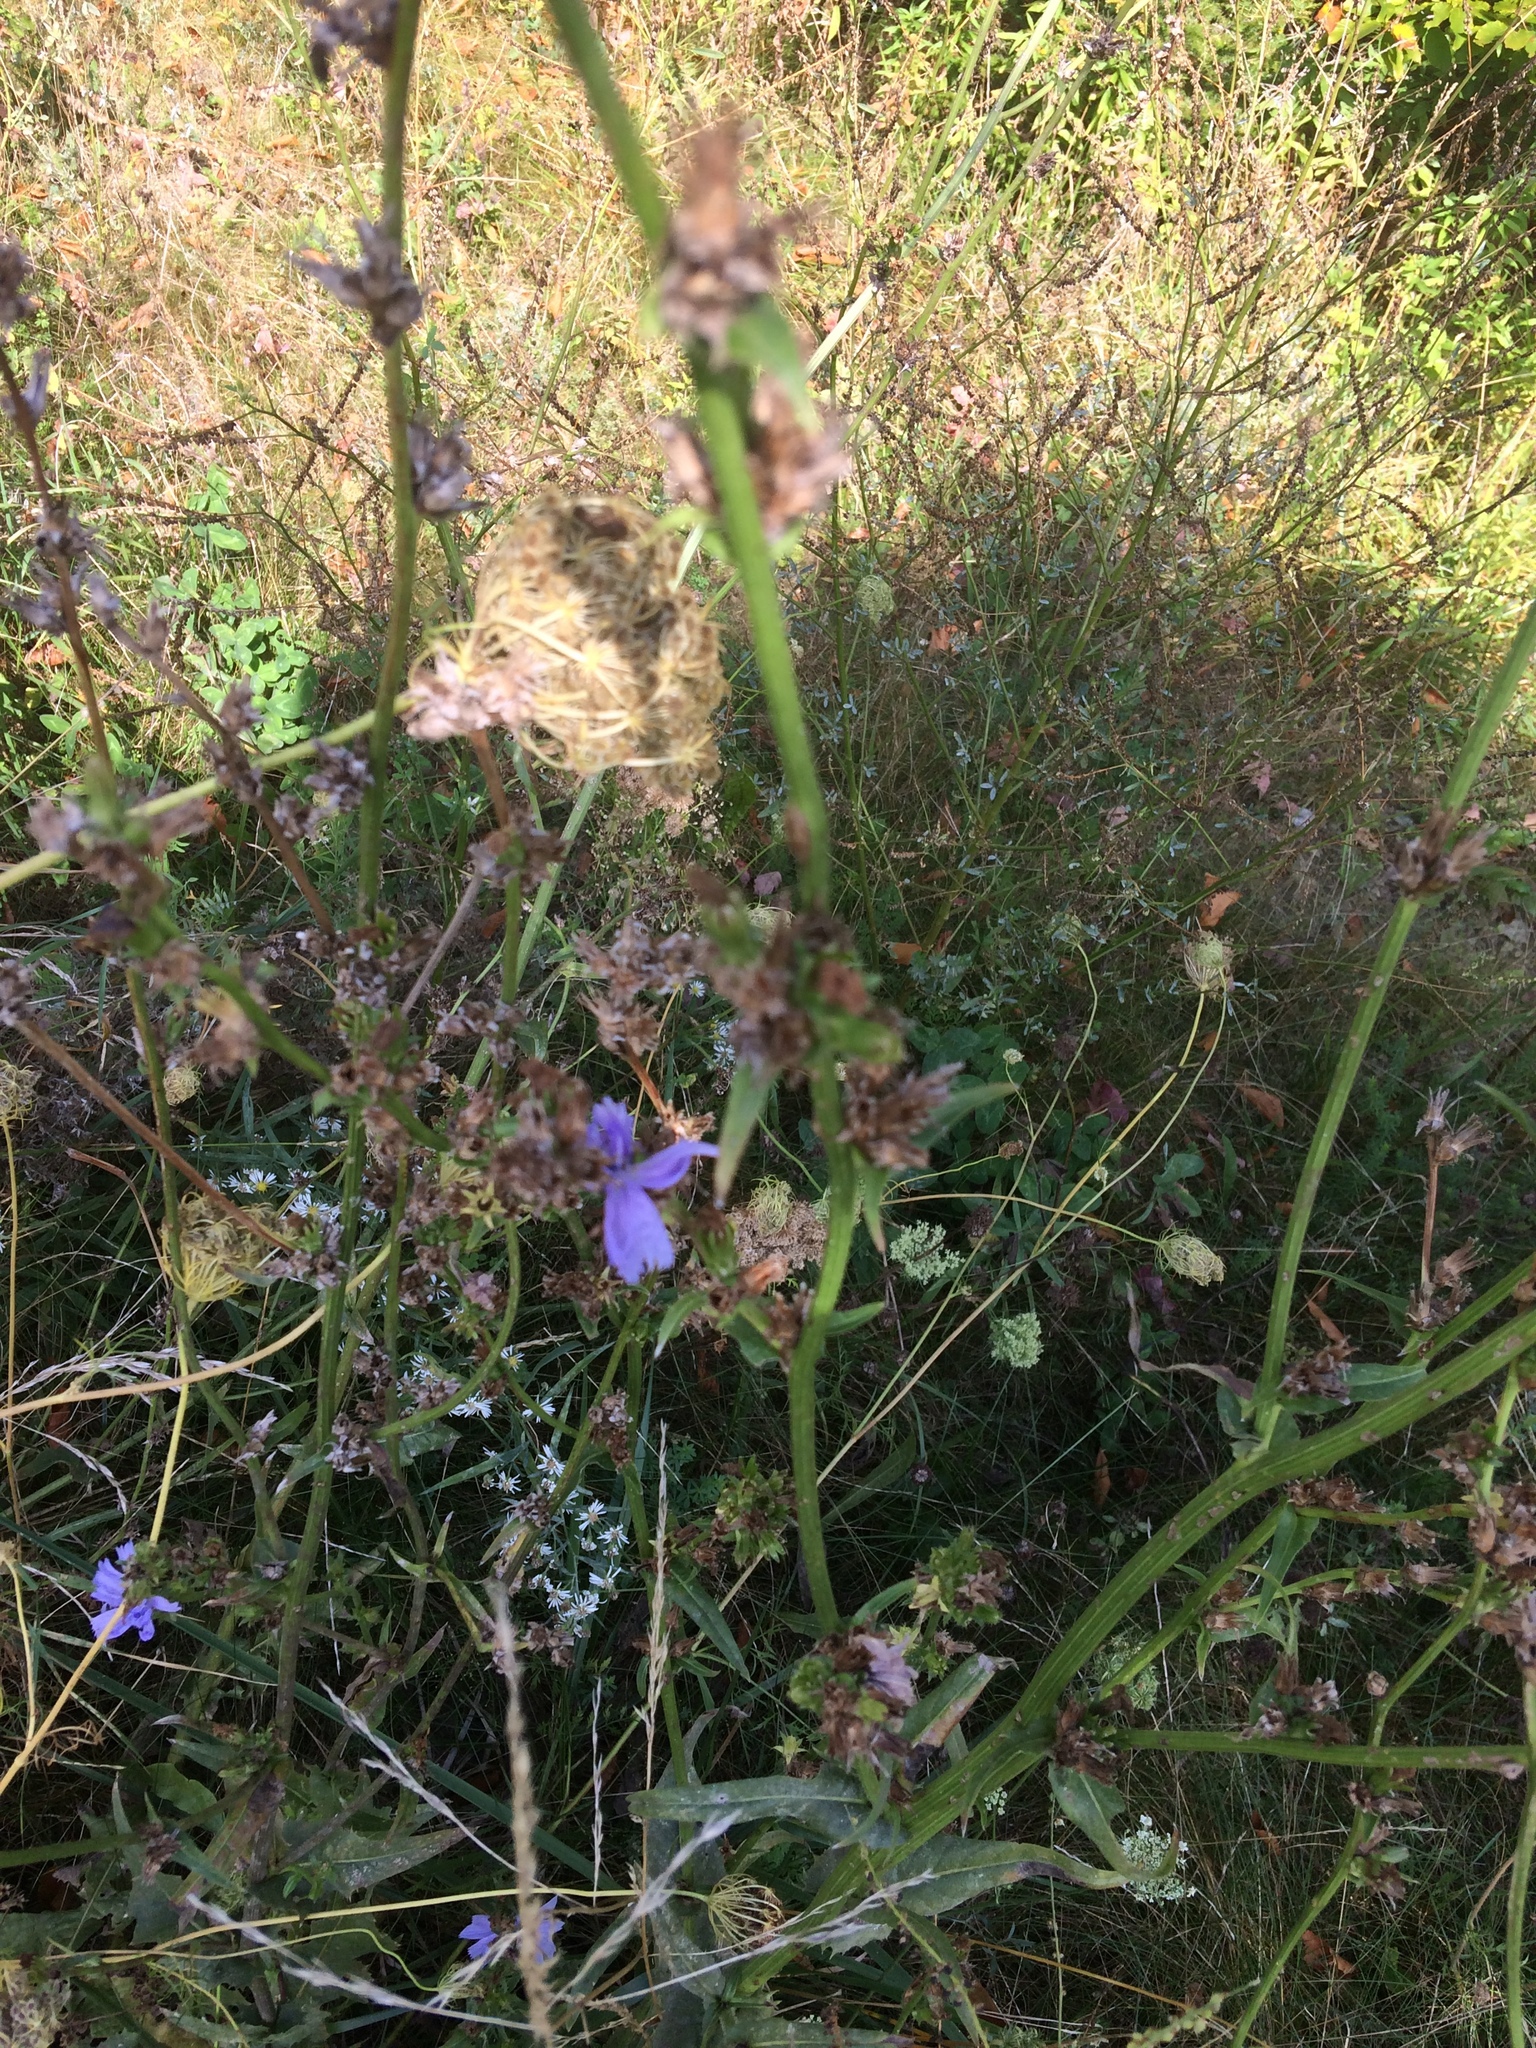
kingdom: Plantae
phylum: Tracheophyta
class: Magnoliopsida
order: Asterales
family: Asteraceae
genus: Cichorium
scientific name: Cichorium intybus
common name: Chicory
